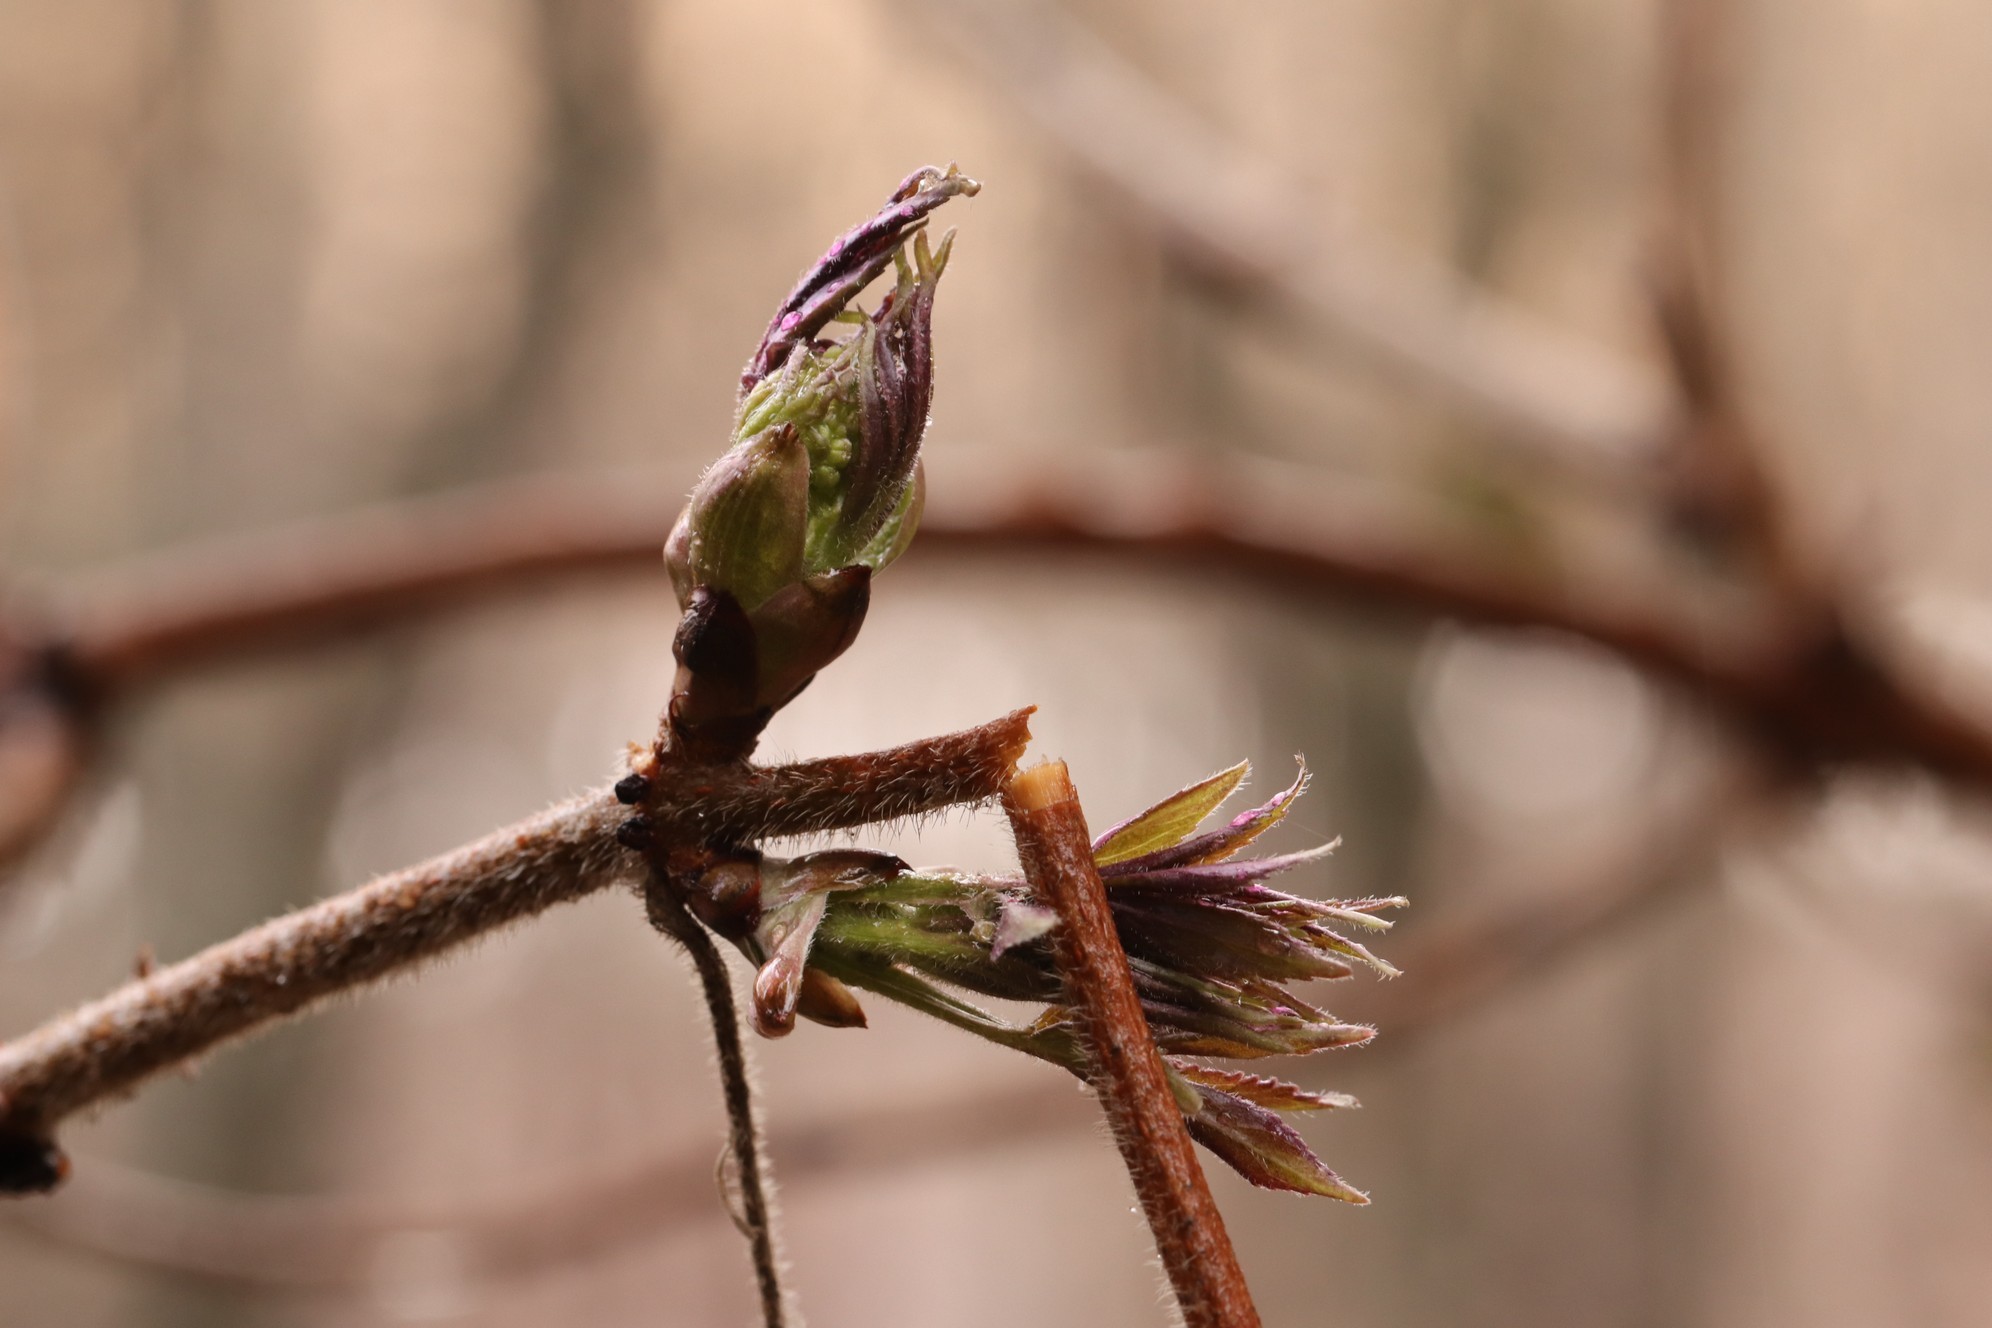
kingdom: Plantae
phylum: Tracheophyta
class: Magnoliopsida
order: Dipsacales
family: Viburnaceae
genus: Sambucus
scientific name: Sambucus sibirica
